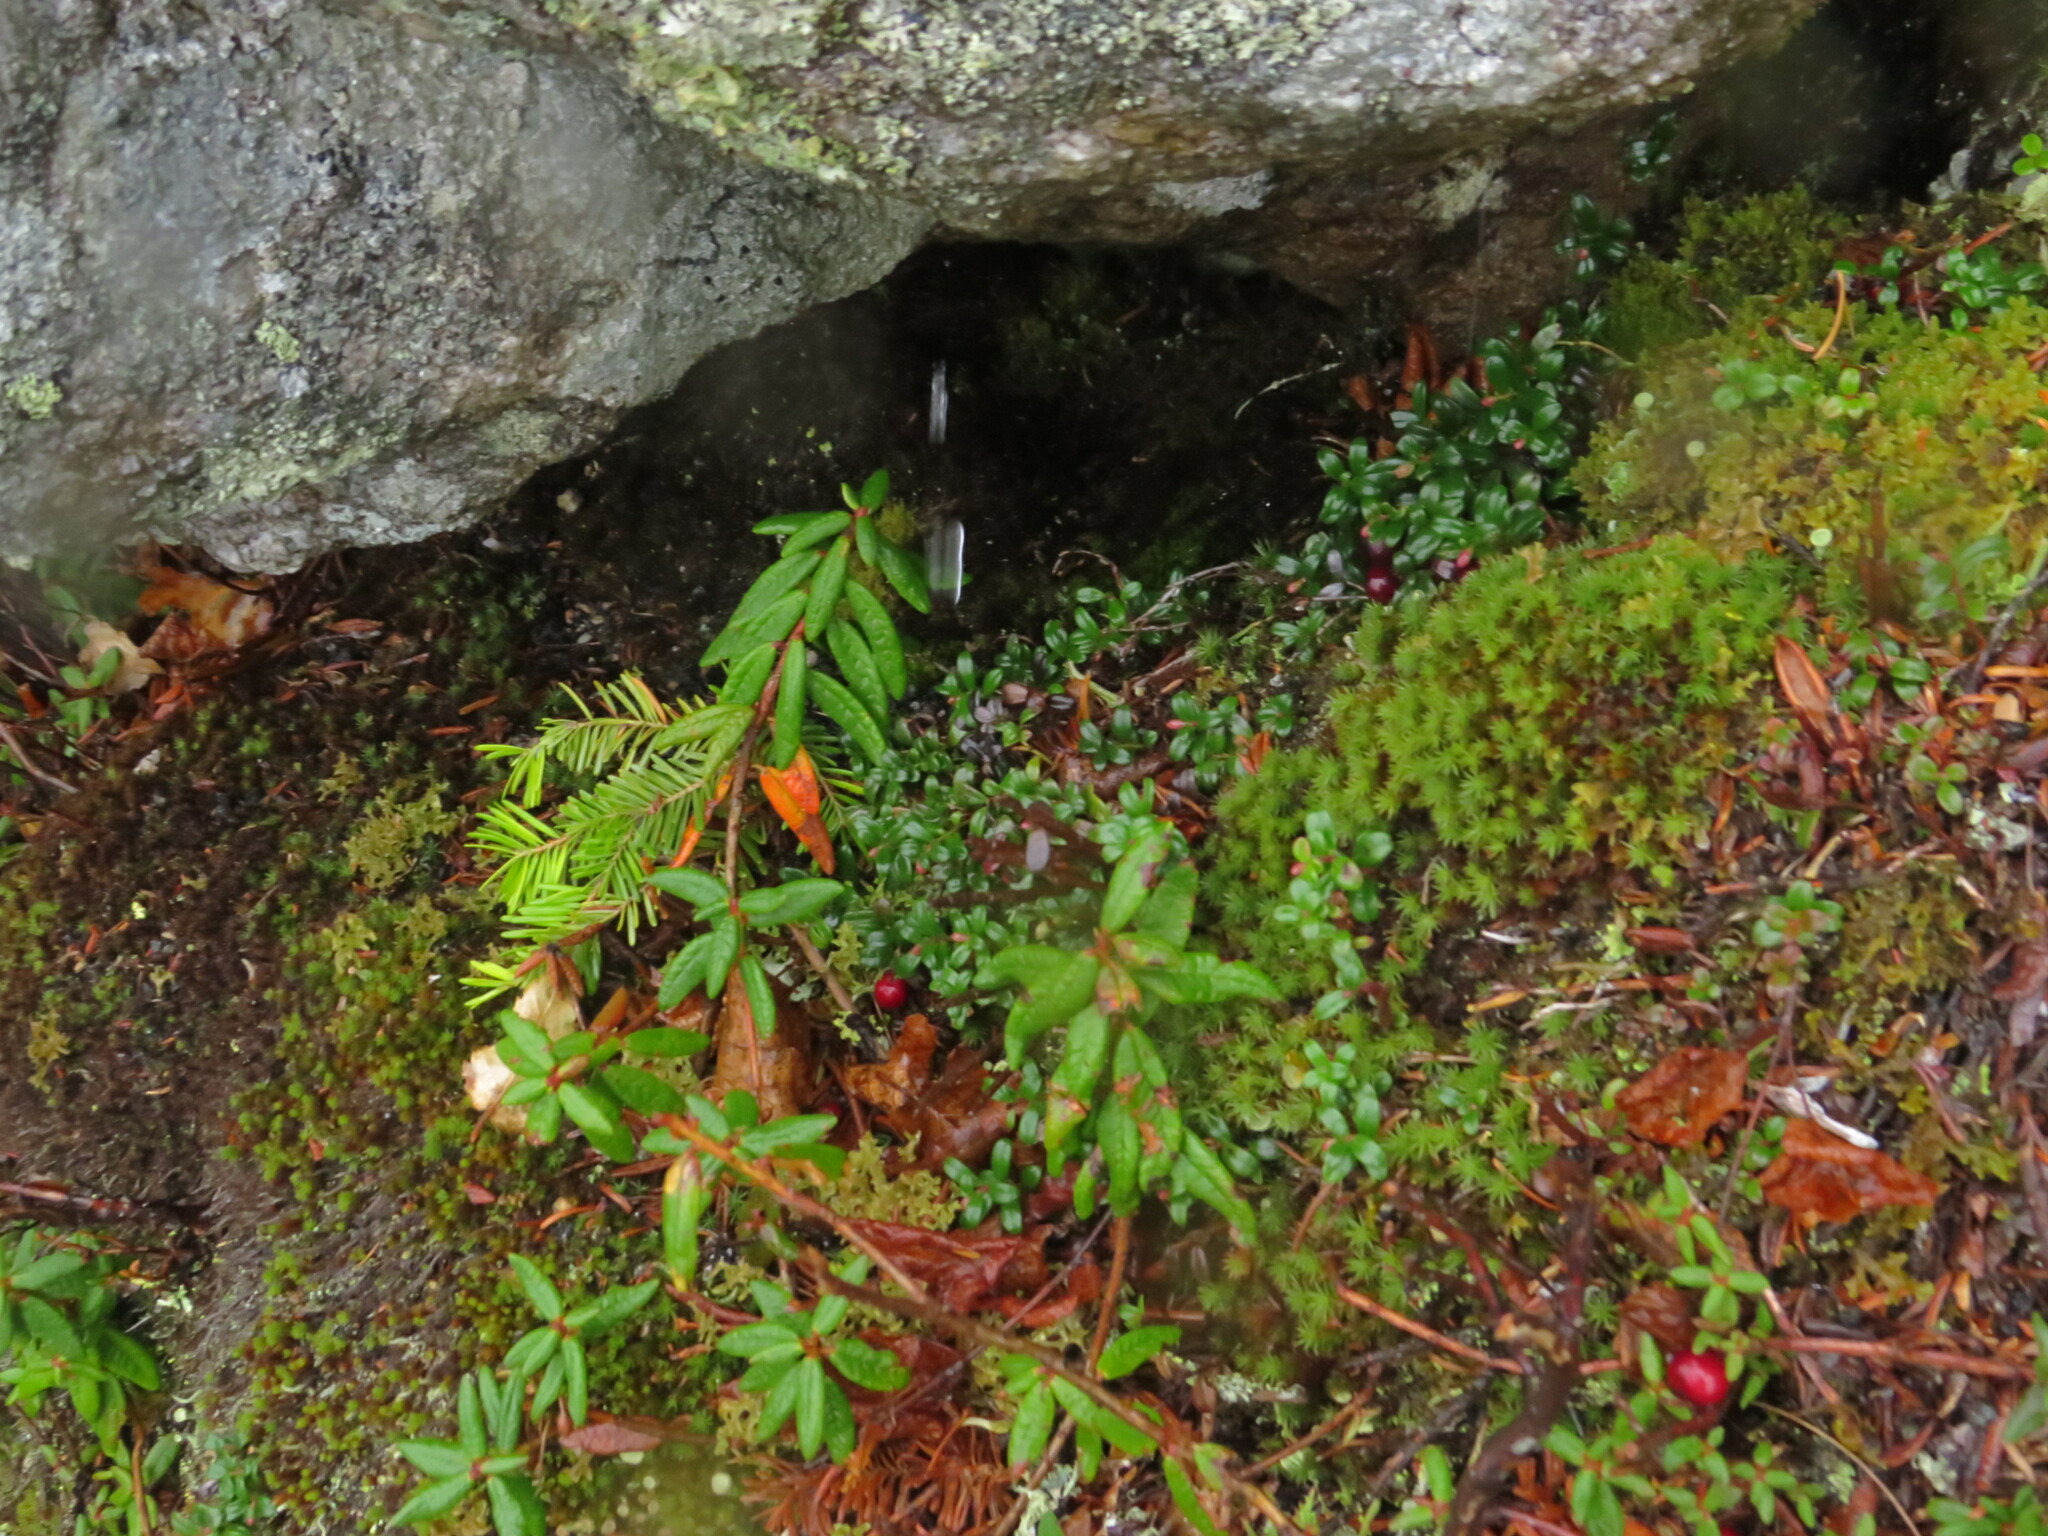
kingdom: Plantae
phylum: Tracheophyta
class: Magnoliopsida
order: Ericales
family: Ericaceae
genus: Vaccinium
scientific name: Vaccinium vitis-idaea
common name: Cowberry
